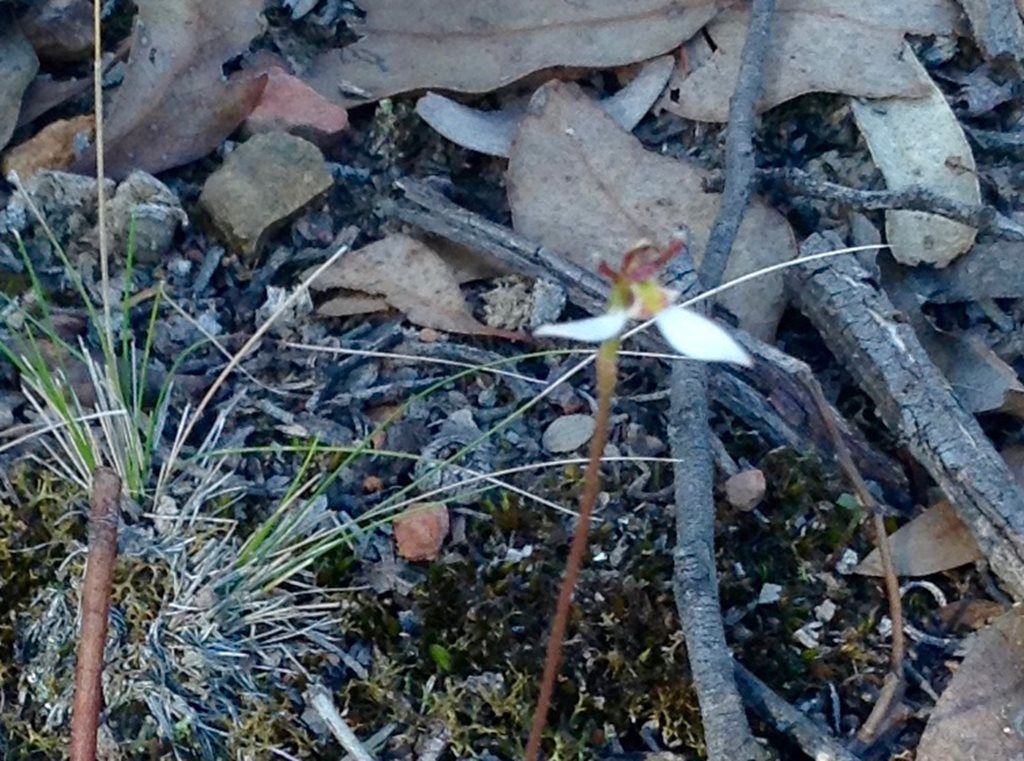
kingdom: Plantae
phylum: Tracheophyta
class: Liliopsida
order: Asparagales
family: Orchidaceae
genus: Eriochilus
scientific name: Eriochilus cucullatus
